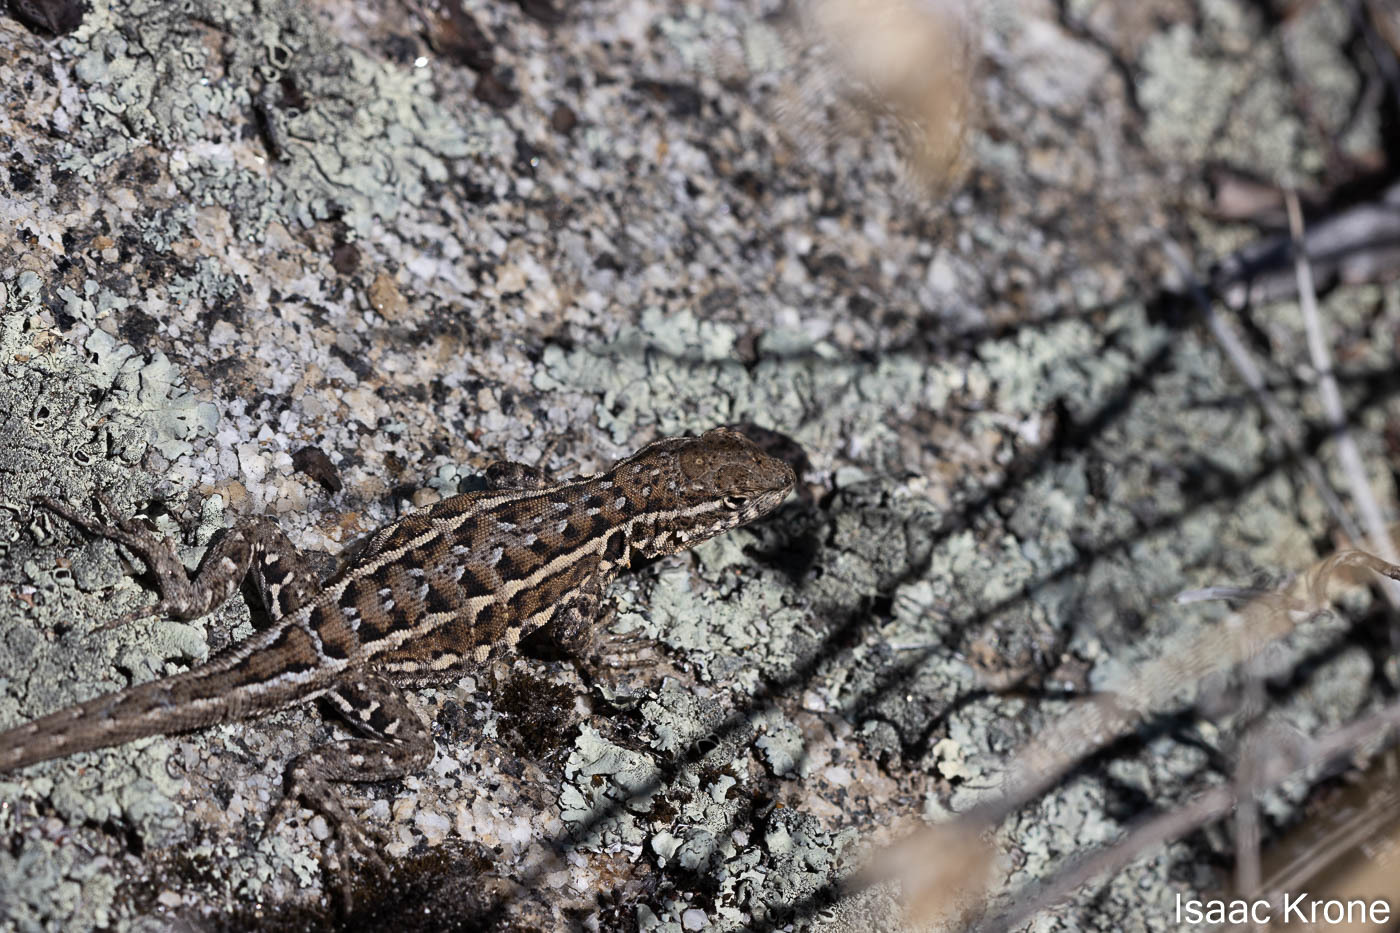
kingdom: Animalia
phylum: Chordata
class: Squamata
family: Phrynosomatidae
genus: Uta
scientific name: Uta stansburiana
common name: Side-blotched lizard
